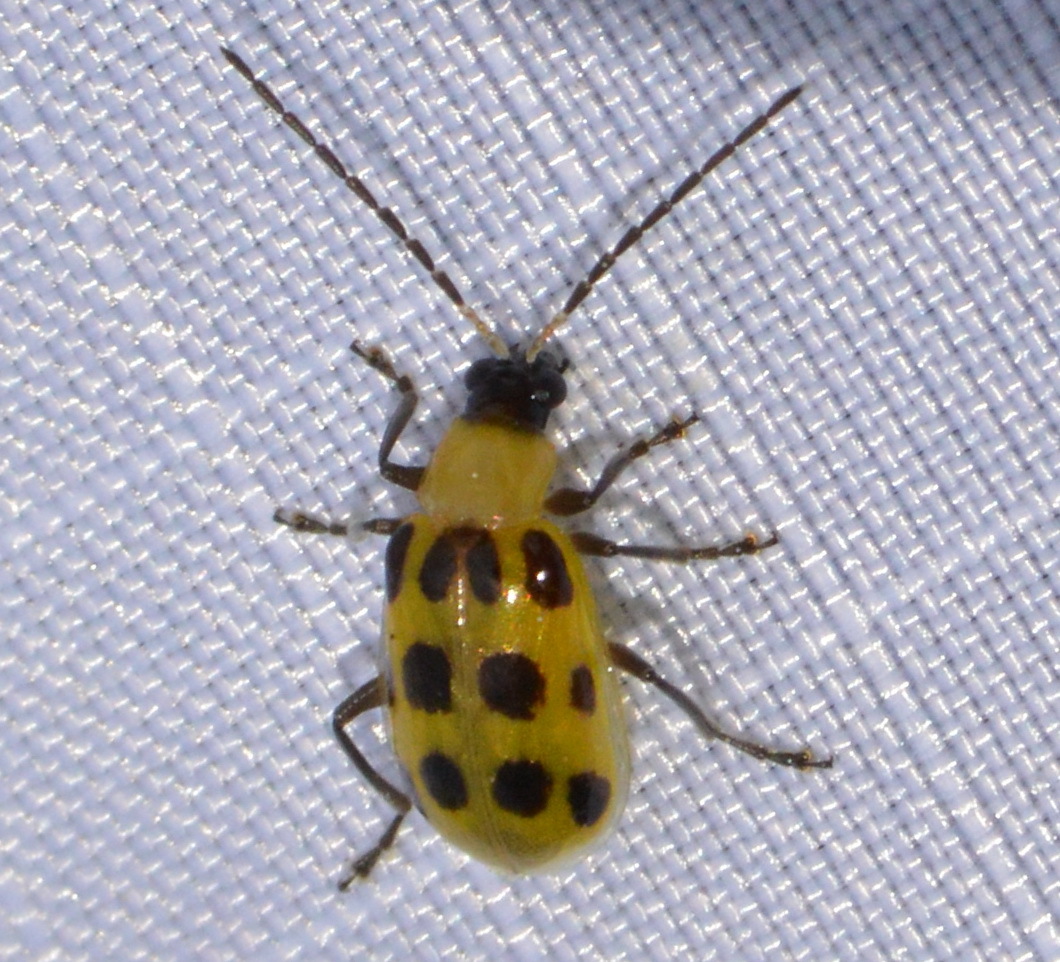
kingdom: Animalia
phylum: Arthropoda
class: Insecta
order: Coleoptera
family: Chrysomelidae
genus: Diabrotica
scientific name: Diabrotica undecimpunctata
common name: Spotted cucumber beetle
